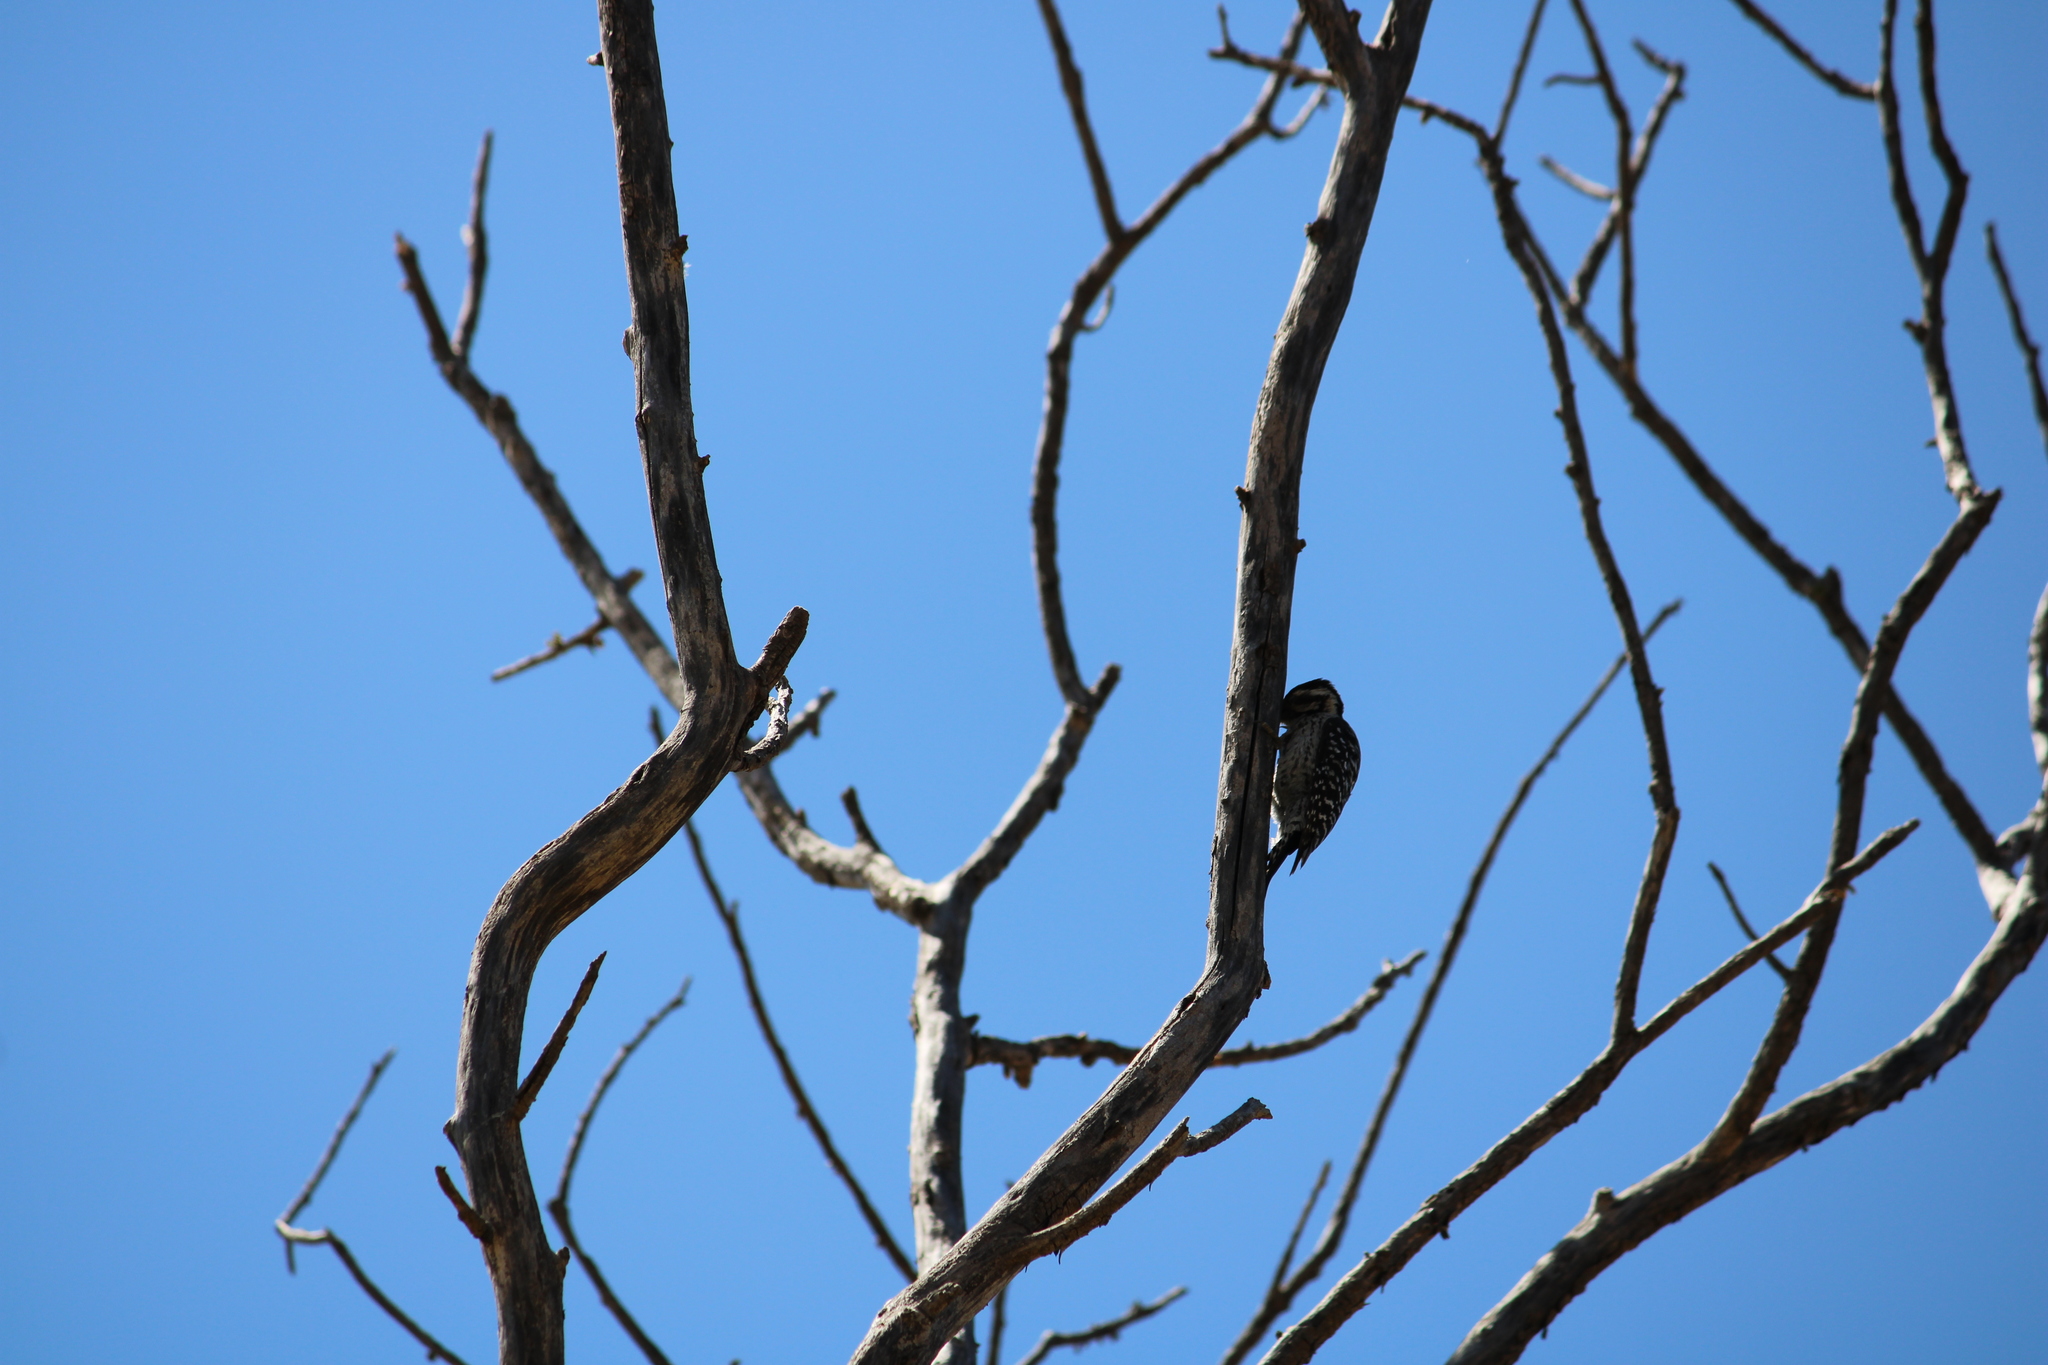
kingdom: Animalia
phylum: Chordata
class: Aves
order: Piciformes
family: Picidae
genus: Dryobates
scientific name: Dryobates scalaris
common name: Ladder-backed woodpecker
